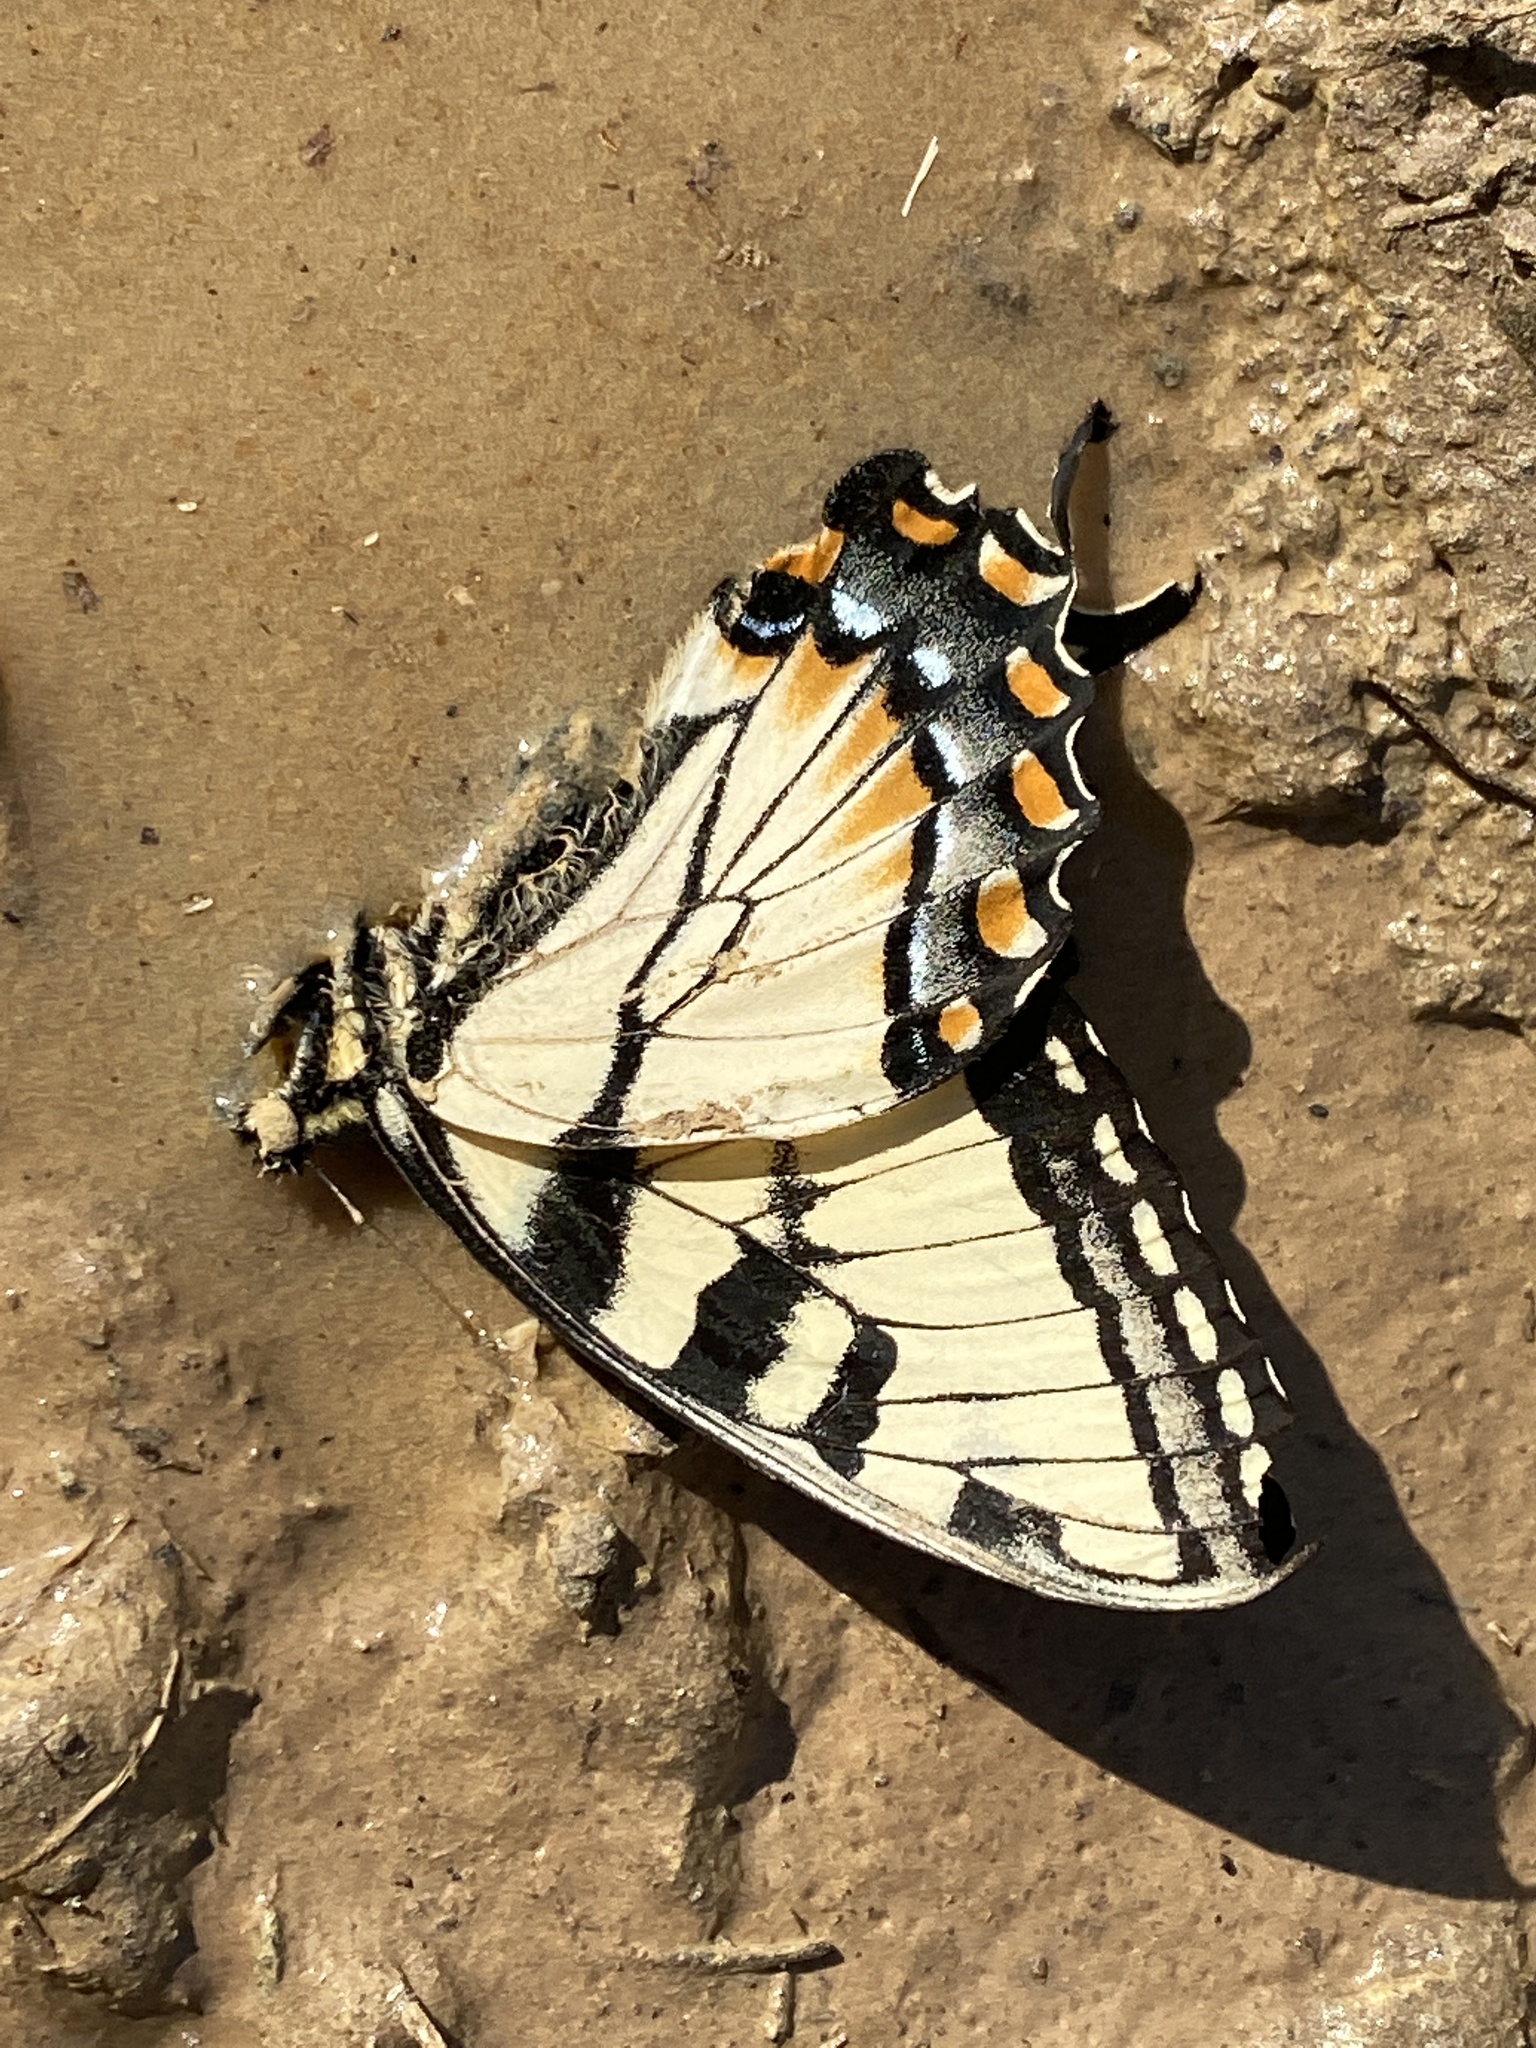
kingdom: Animalia
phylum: Arthropoda
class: Insecta
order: Lepidoptera
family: Papilionidae
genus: Papilio
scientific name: Papilio glaucus
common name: Tiger swallowtail
